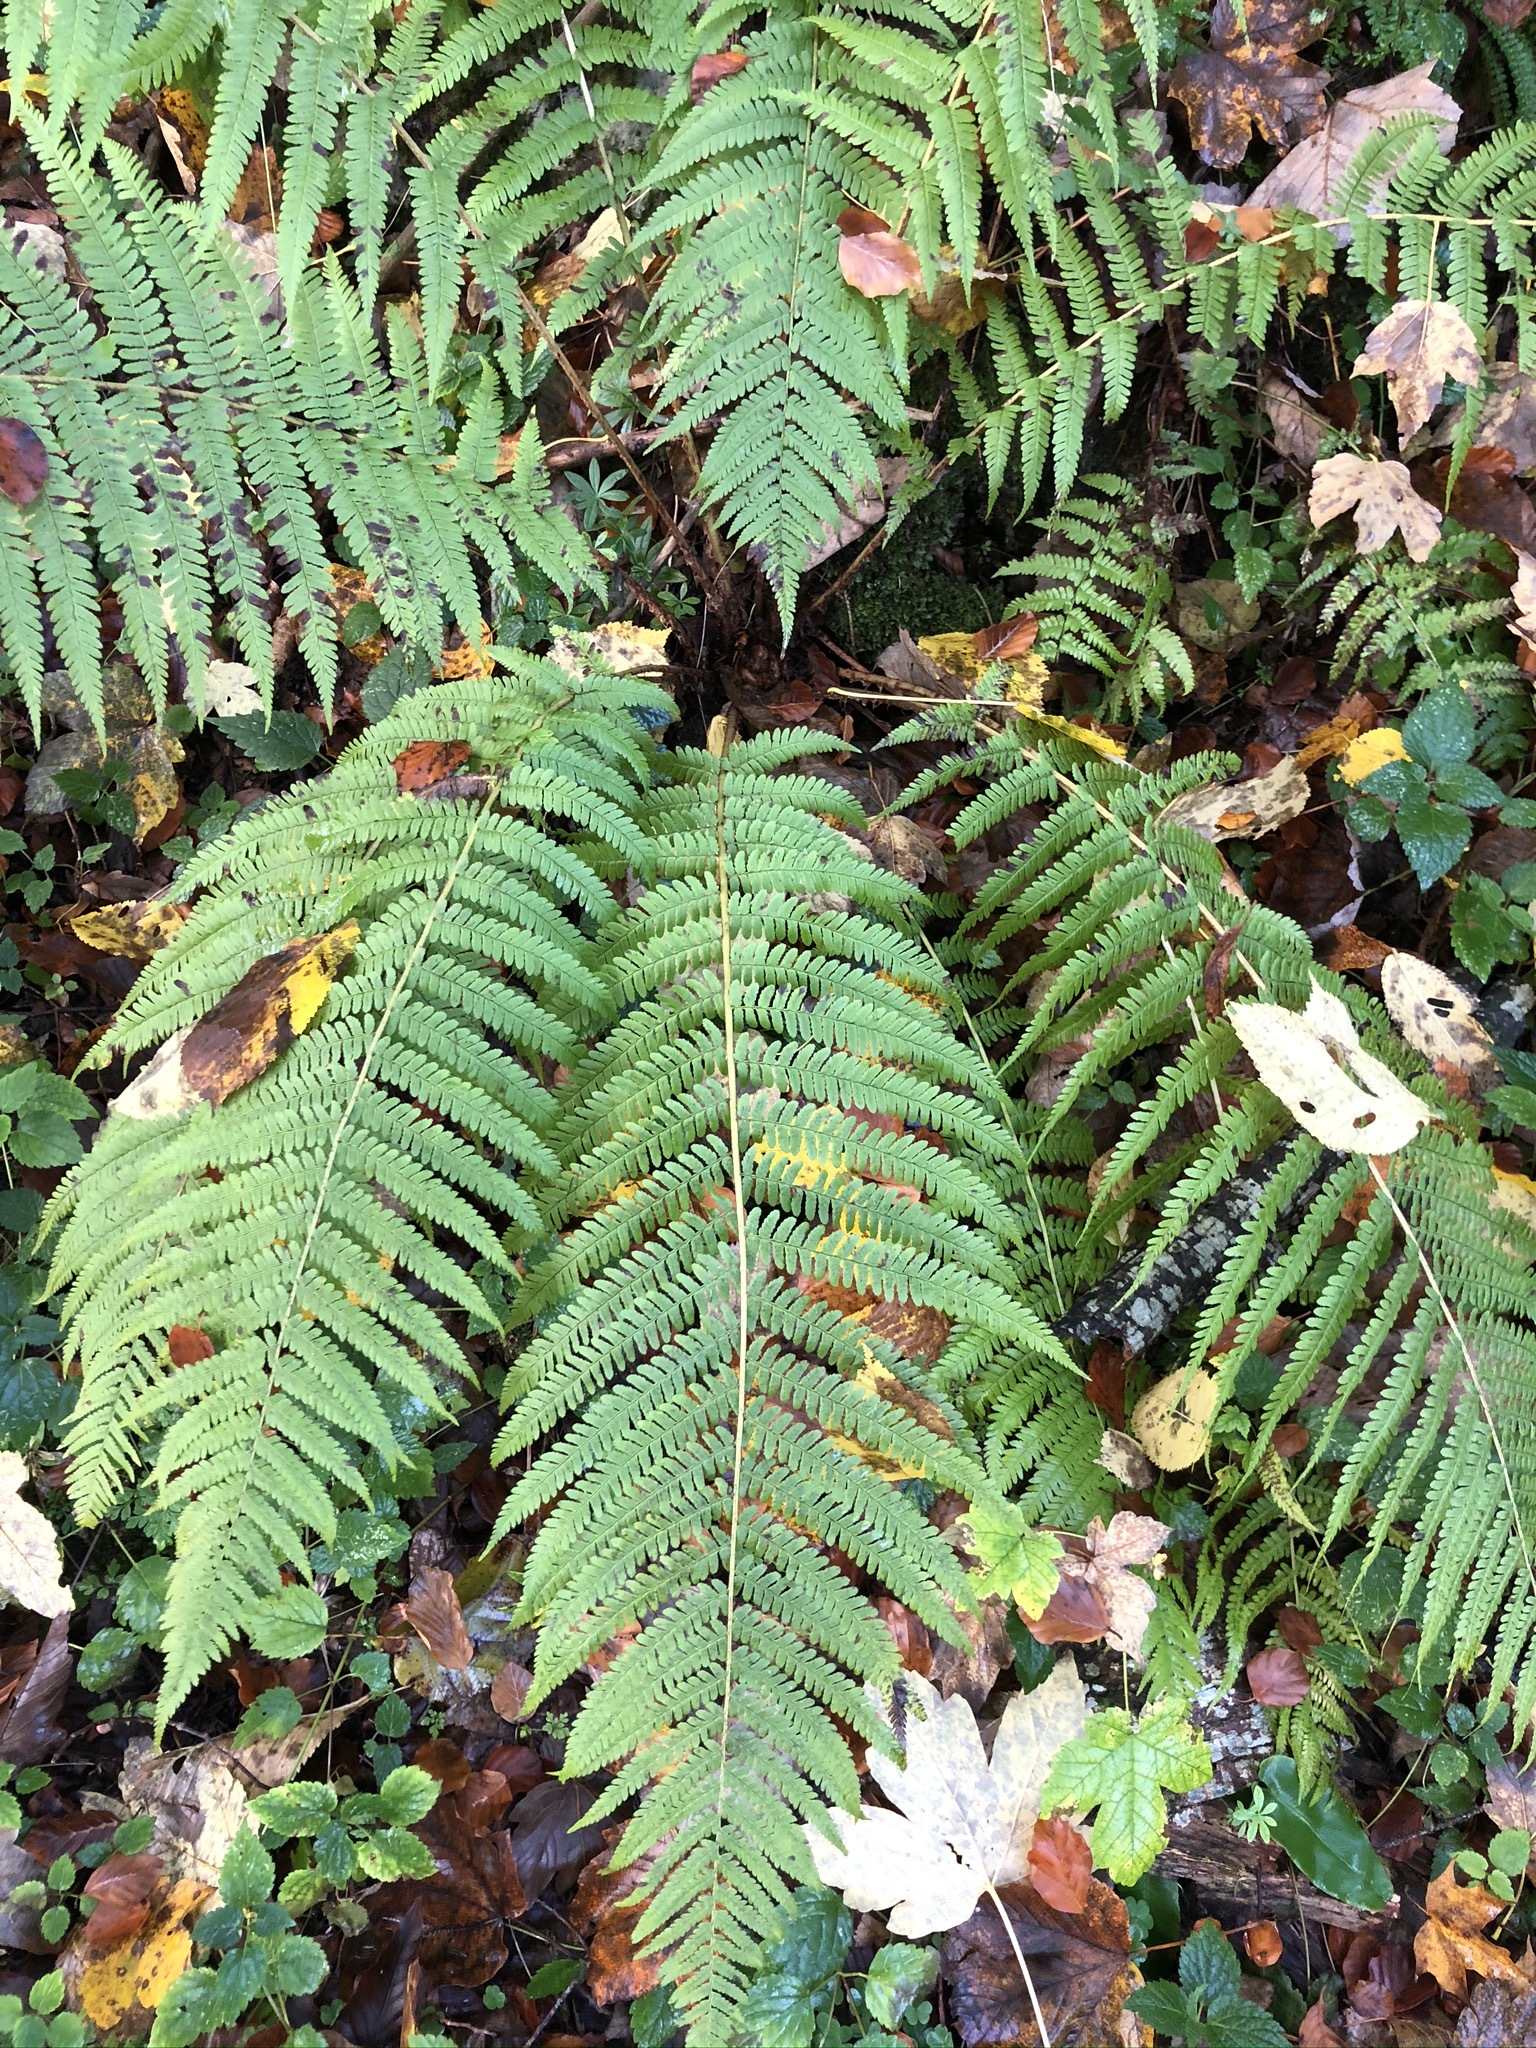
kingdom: Plantae
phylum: Tracheophyta
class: Polypodiopsida
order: Polypodiales
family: Dryopteridaceae
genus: Dryopteris
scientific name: Dryopteris filix-mas
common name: Male fern
